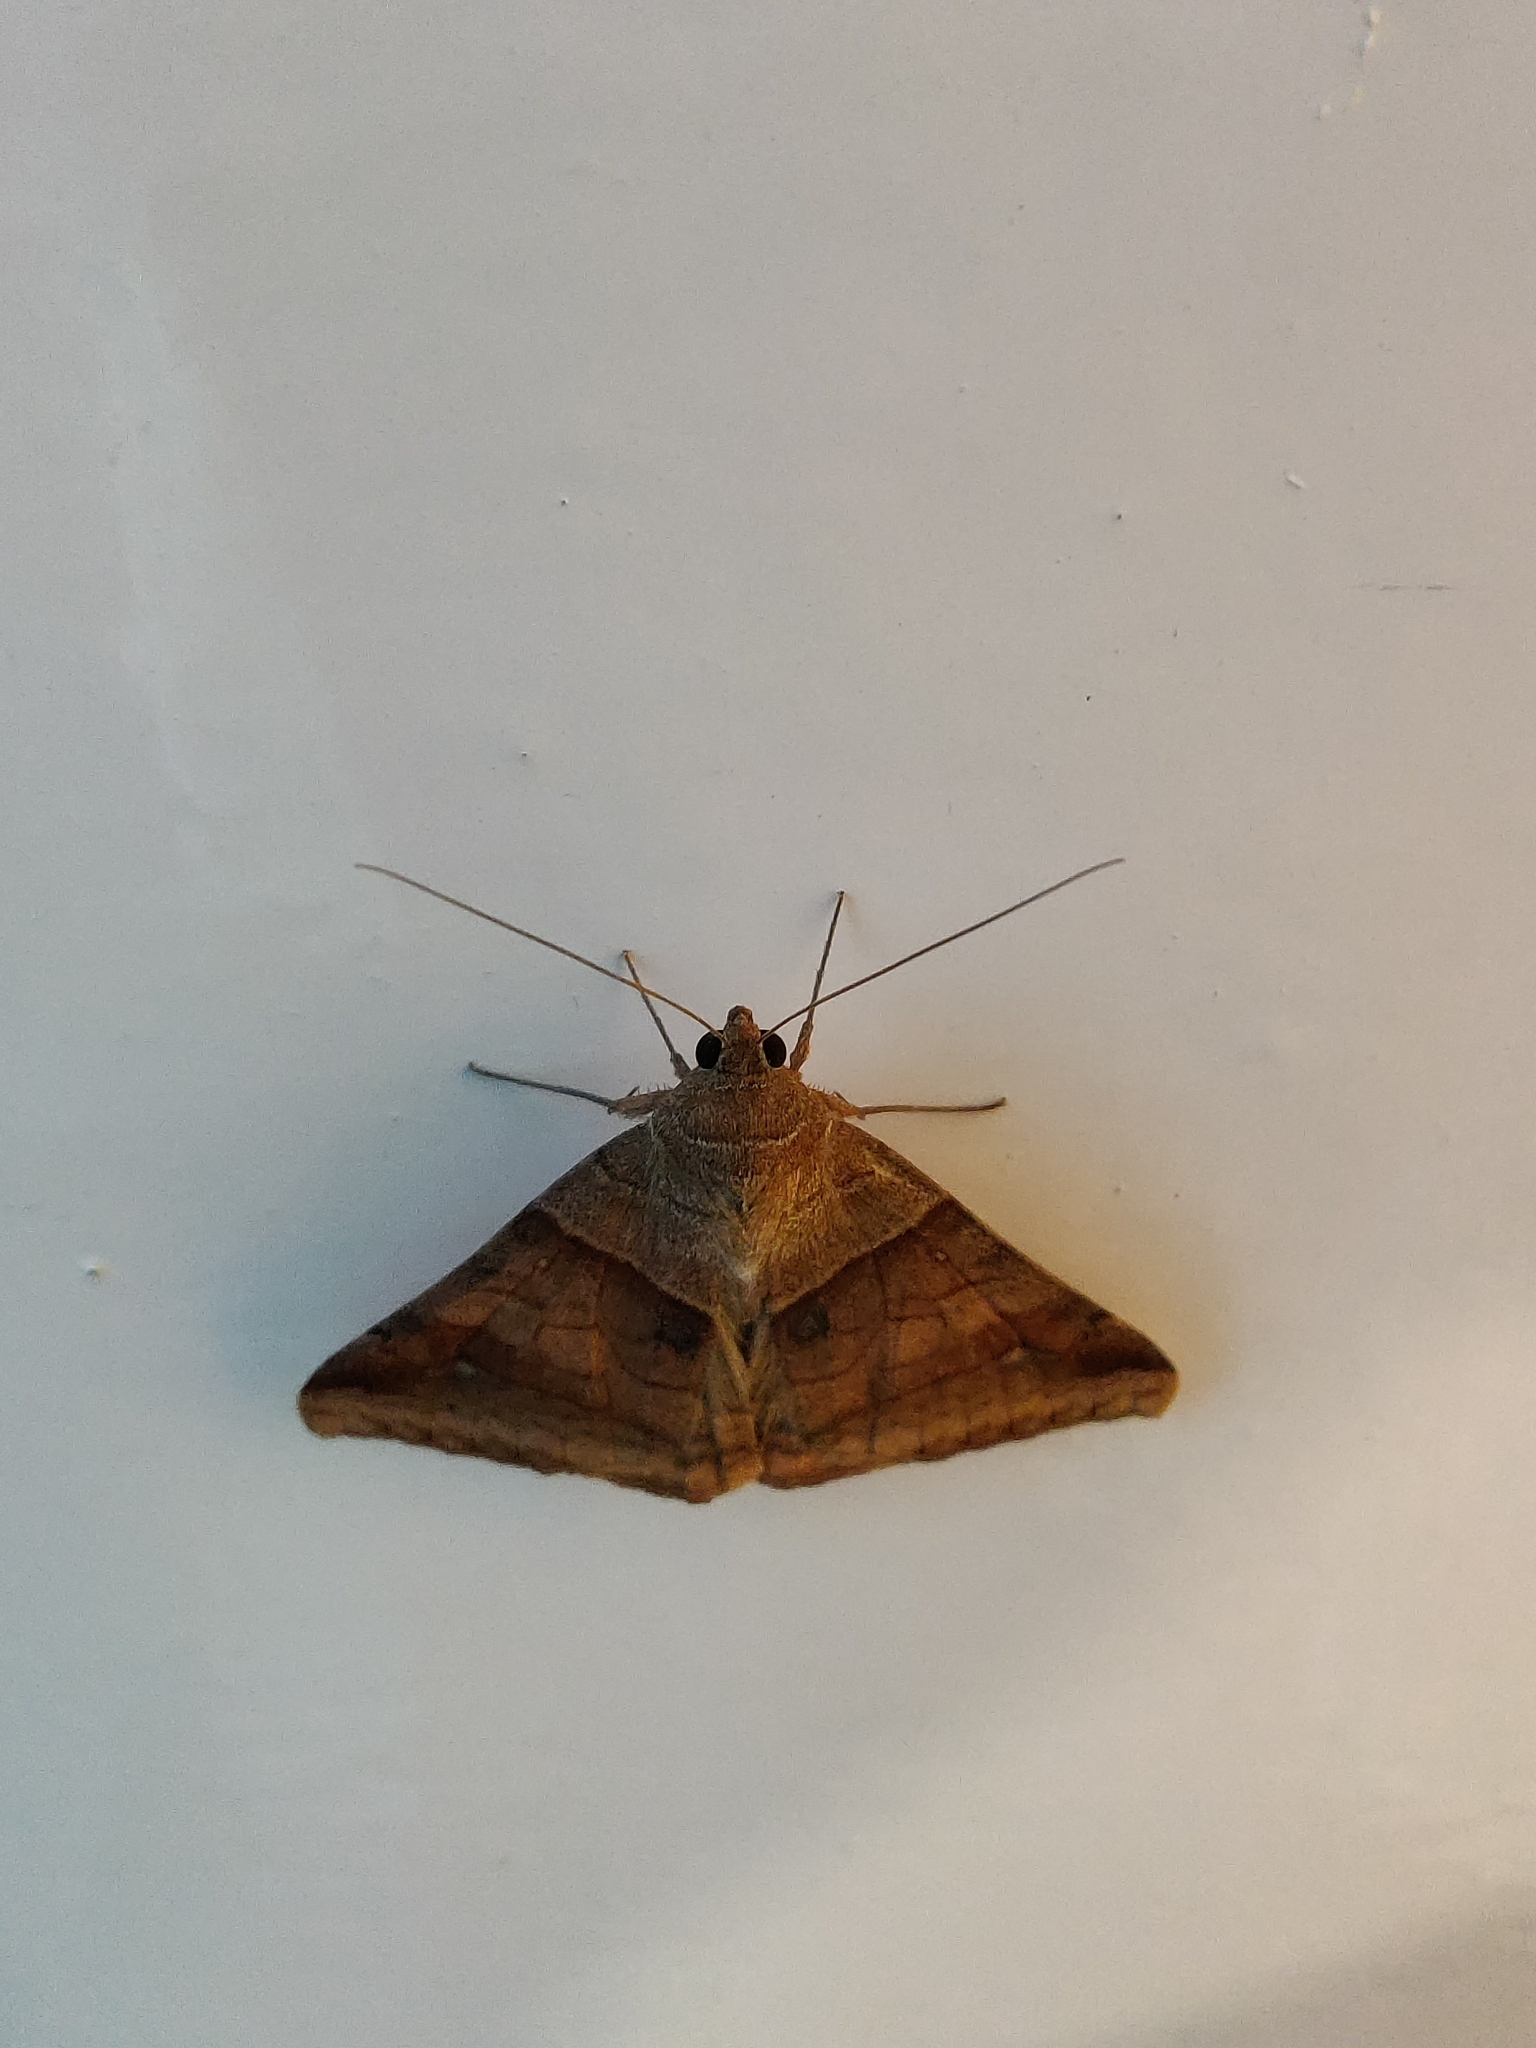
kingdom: Animalia
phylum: Arthropoda
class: Insecta
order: Lepidoptera
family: Erebidae
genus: Mocis
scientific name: Mocis undata
